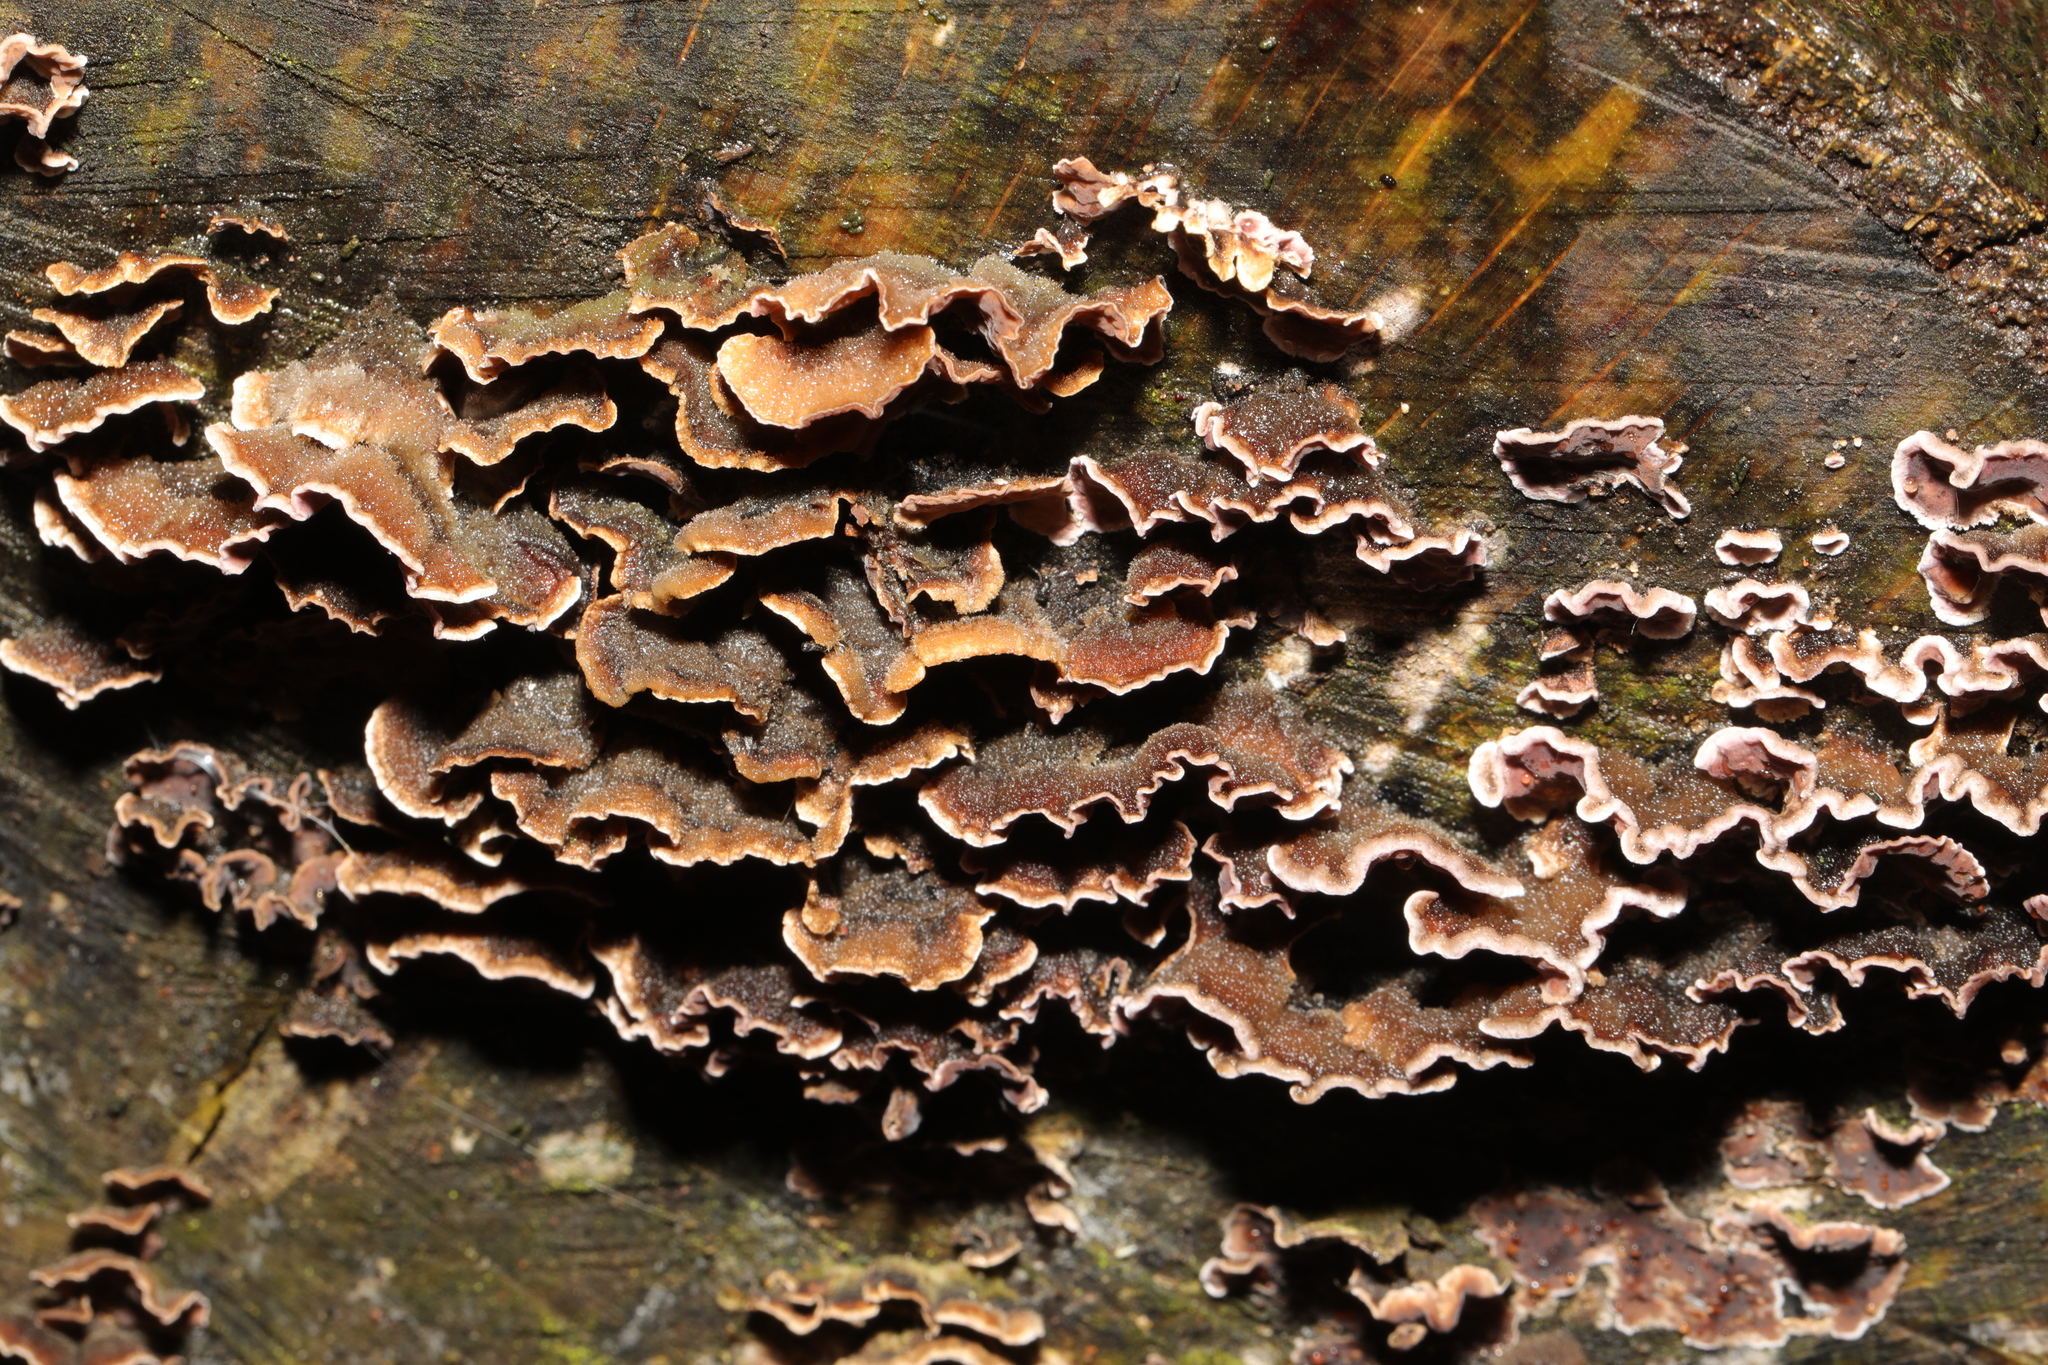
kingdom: Fungi
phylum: Basidiomycota
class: Agaricomycetes
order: Agaricales
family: Cyphellaceae
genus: Chondrostereum
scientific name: Chondrostereum purpureum
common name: Silver leaf disease
